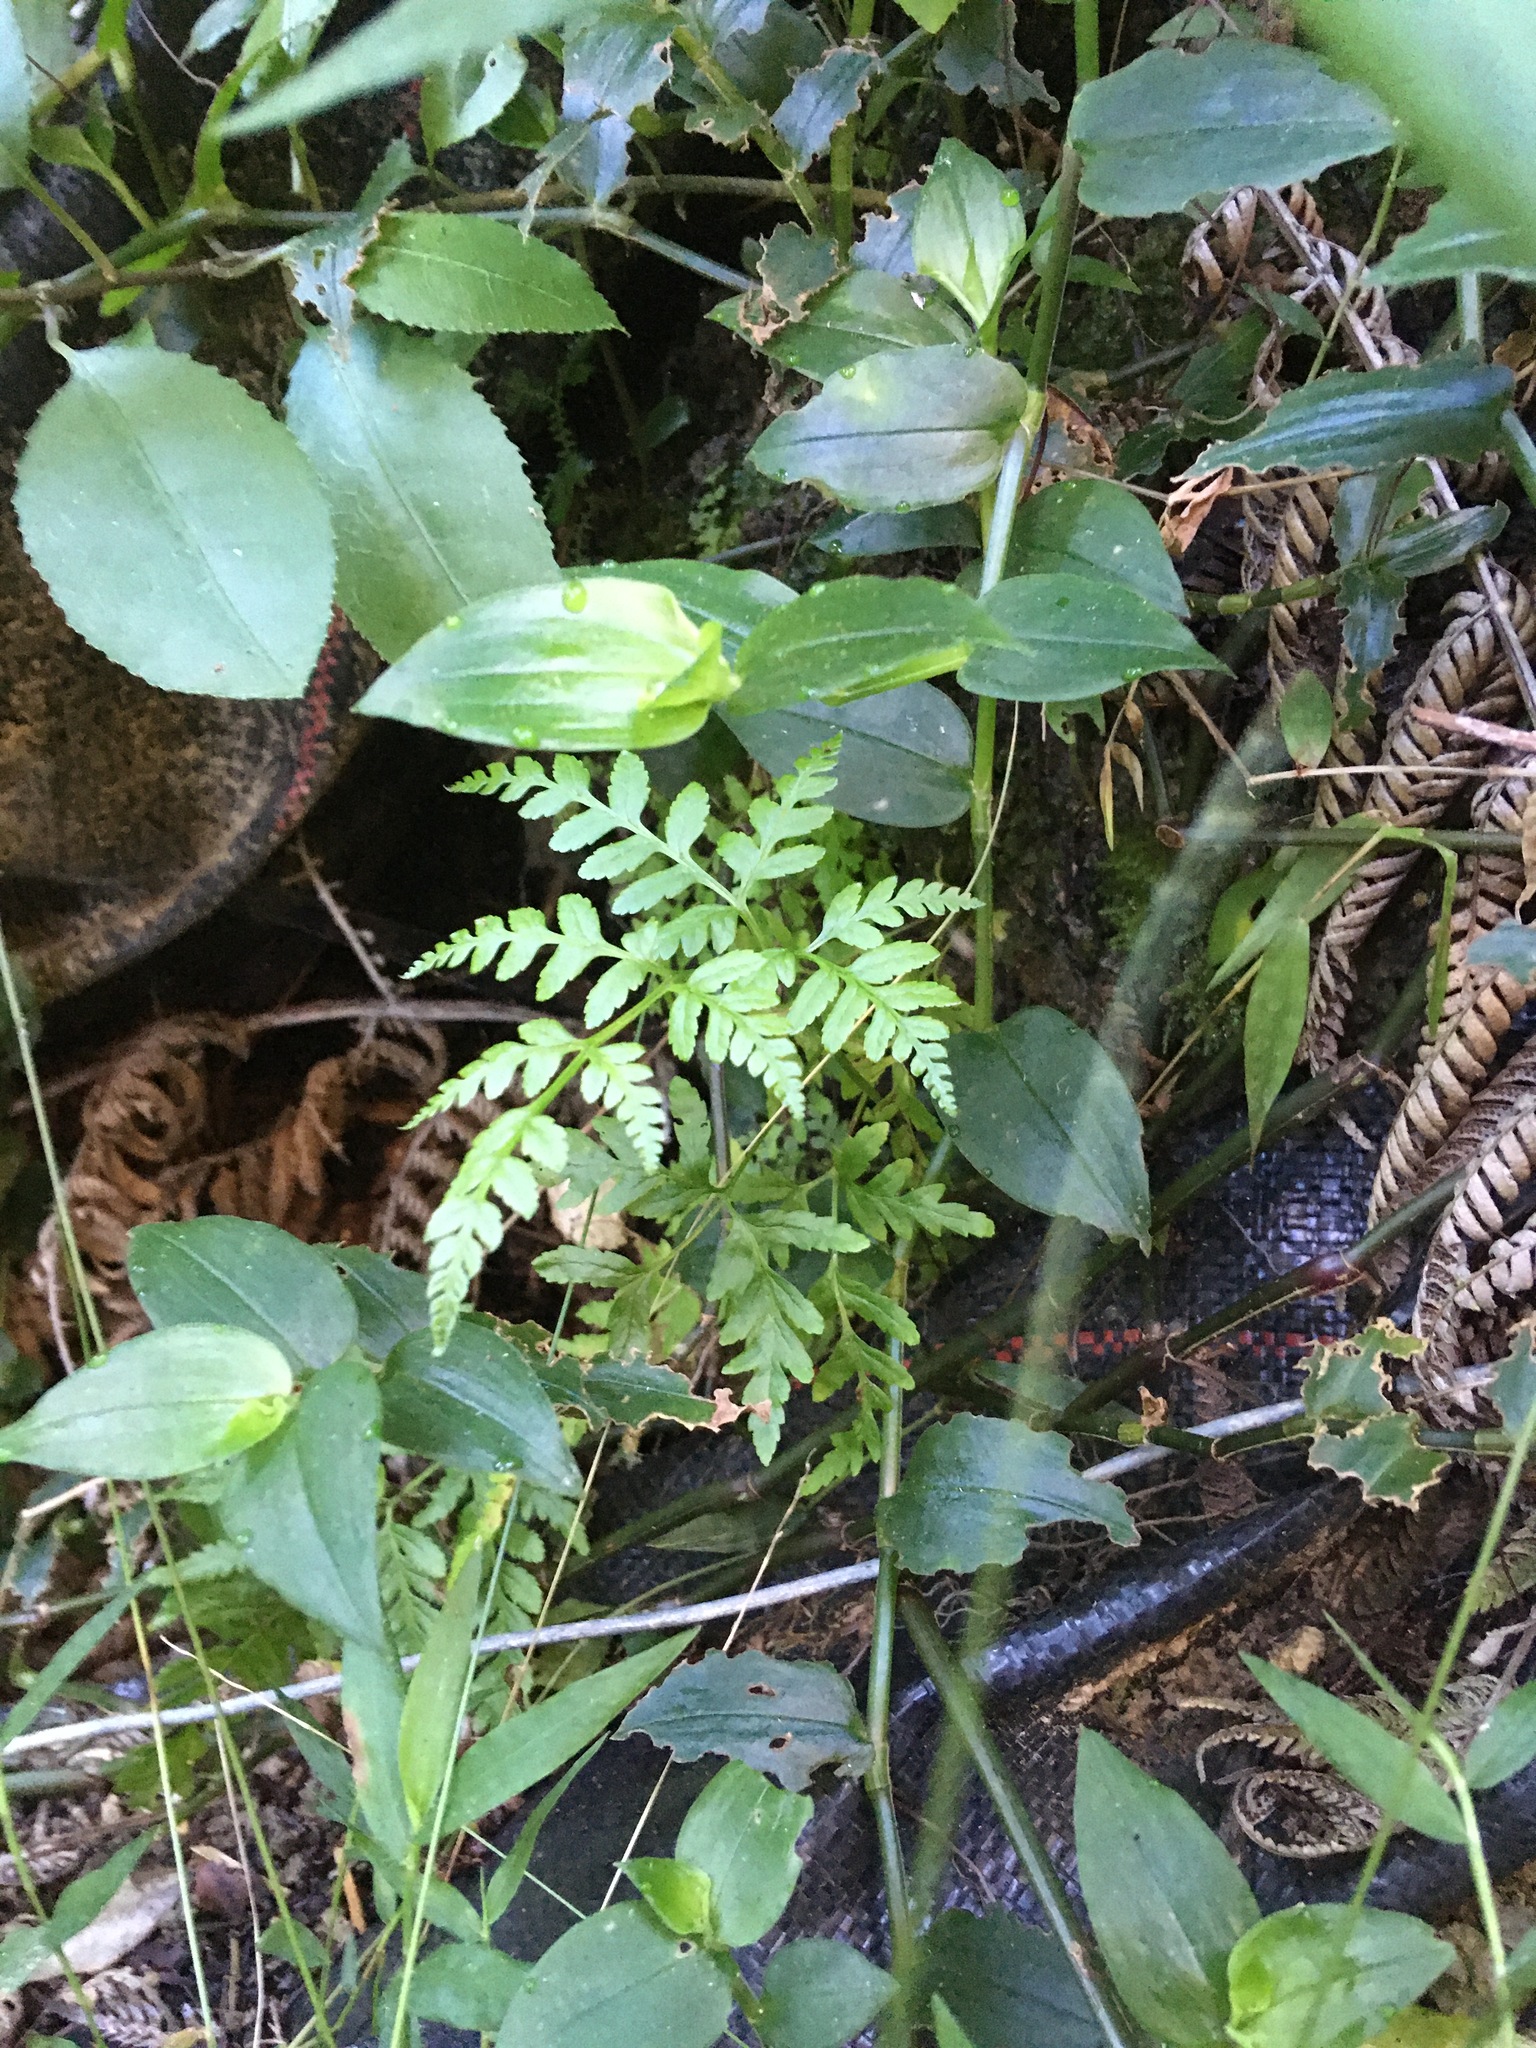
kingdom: Plantae
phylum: Tracheophyta
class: Polypodiopsida
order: Polypodiales
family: Pteridaceae
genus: Pteris
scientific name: Pteris tremula
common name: Australian brake
